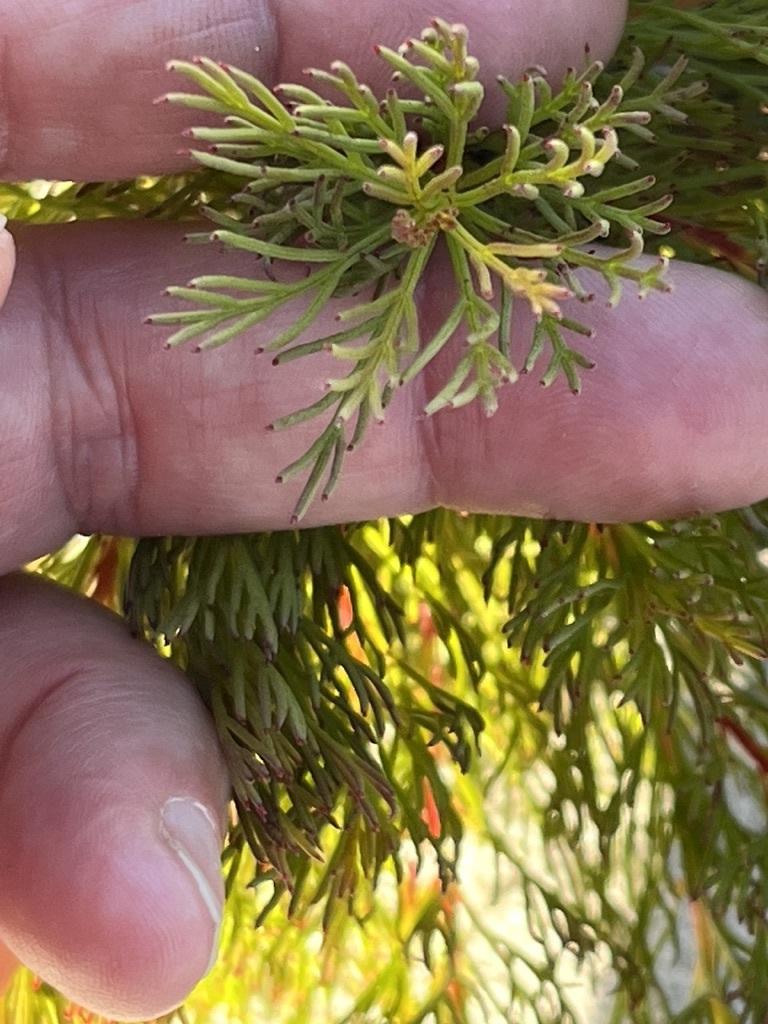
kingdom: Plantae
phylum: Tracheophyta
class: Magnoliopsida
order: Proteales
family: Proteaceae
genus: Serruria
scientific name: Serruria nervosa
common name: Fluted spiderhead
